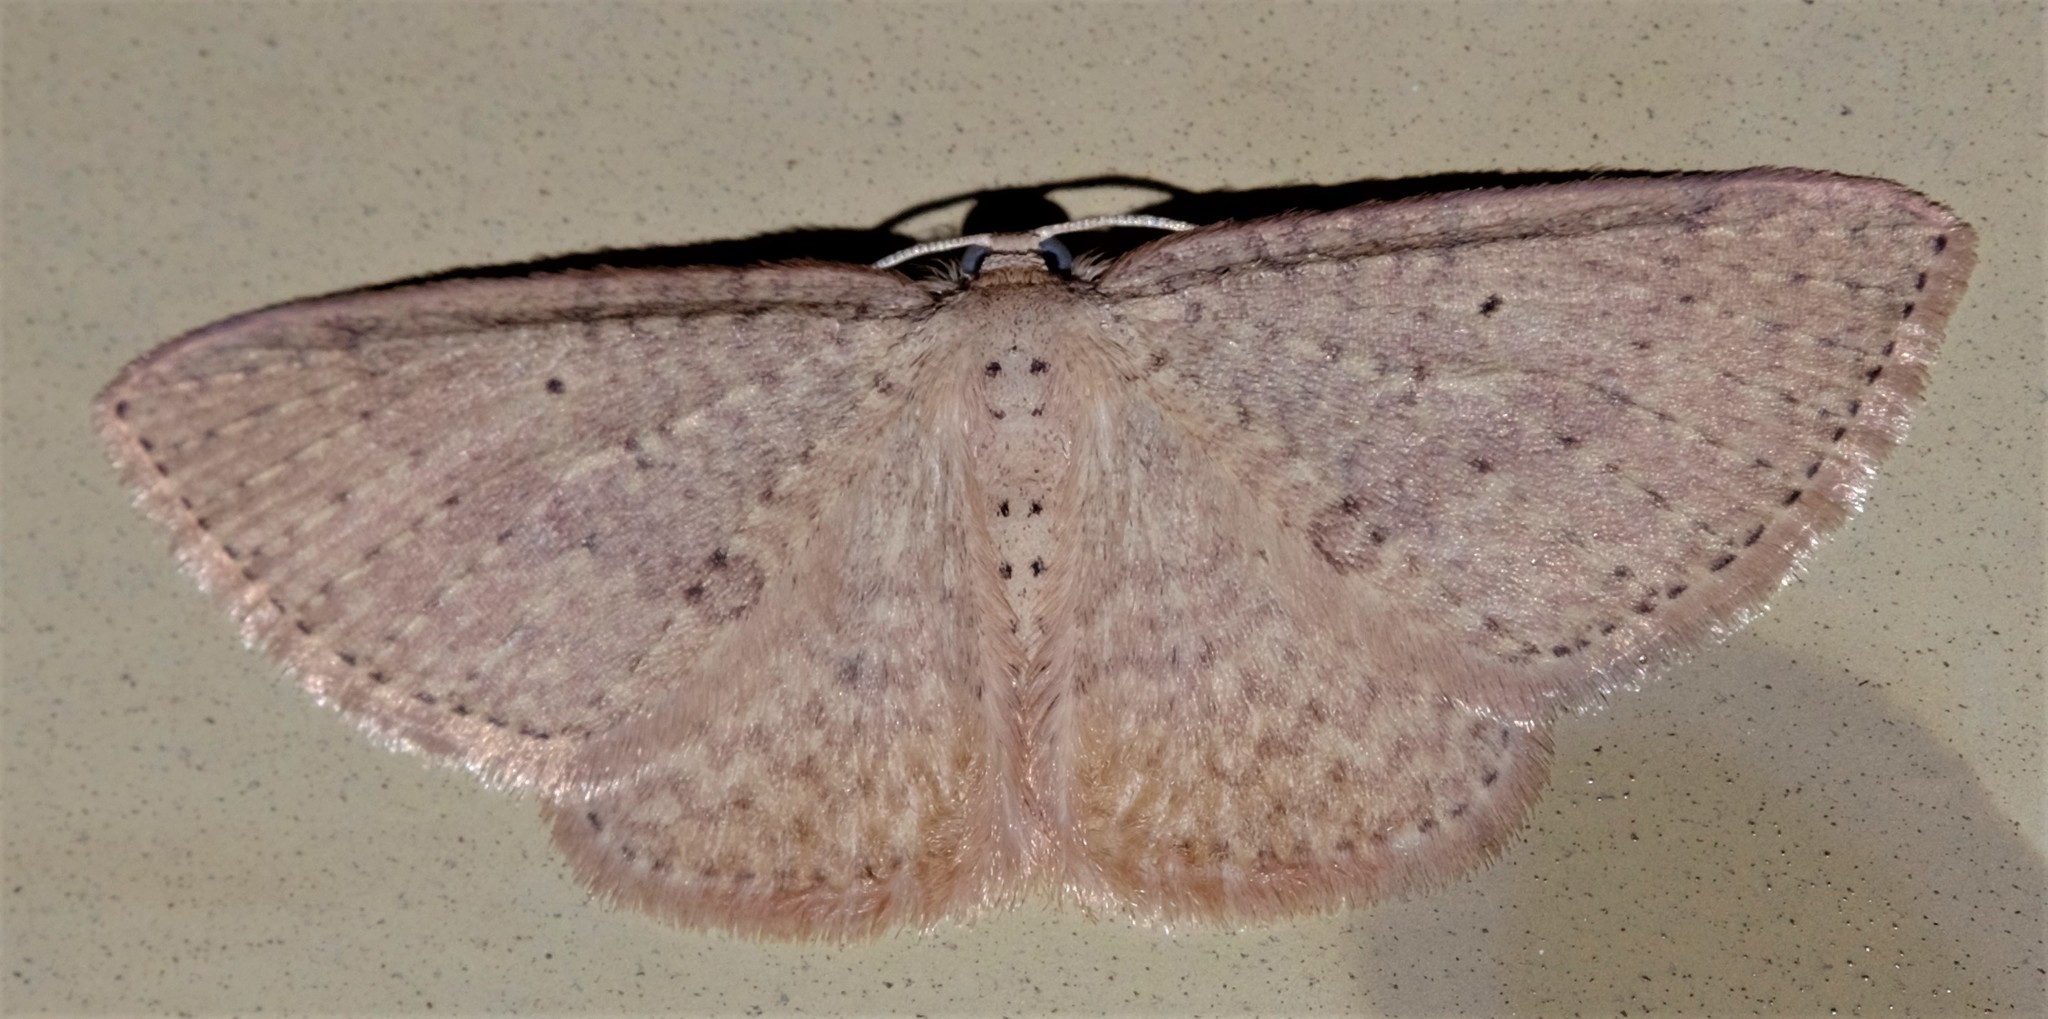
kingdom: Animalia
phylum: Arthropoda
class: Insecta
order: Lepidoptera
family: Geometridae
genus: Poecilasthena
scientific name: Poecilasthena anthodes
